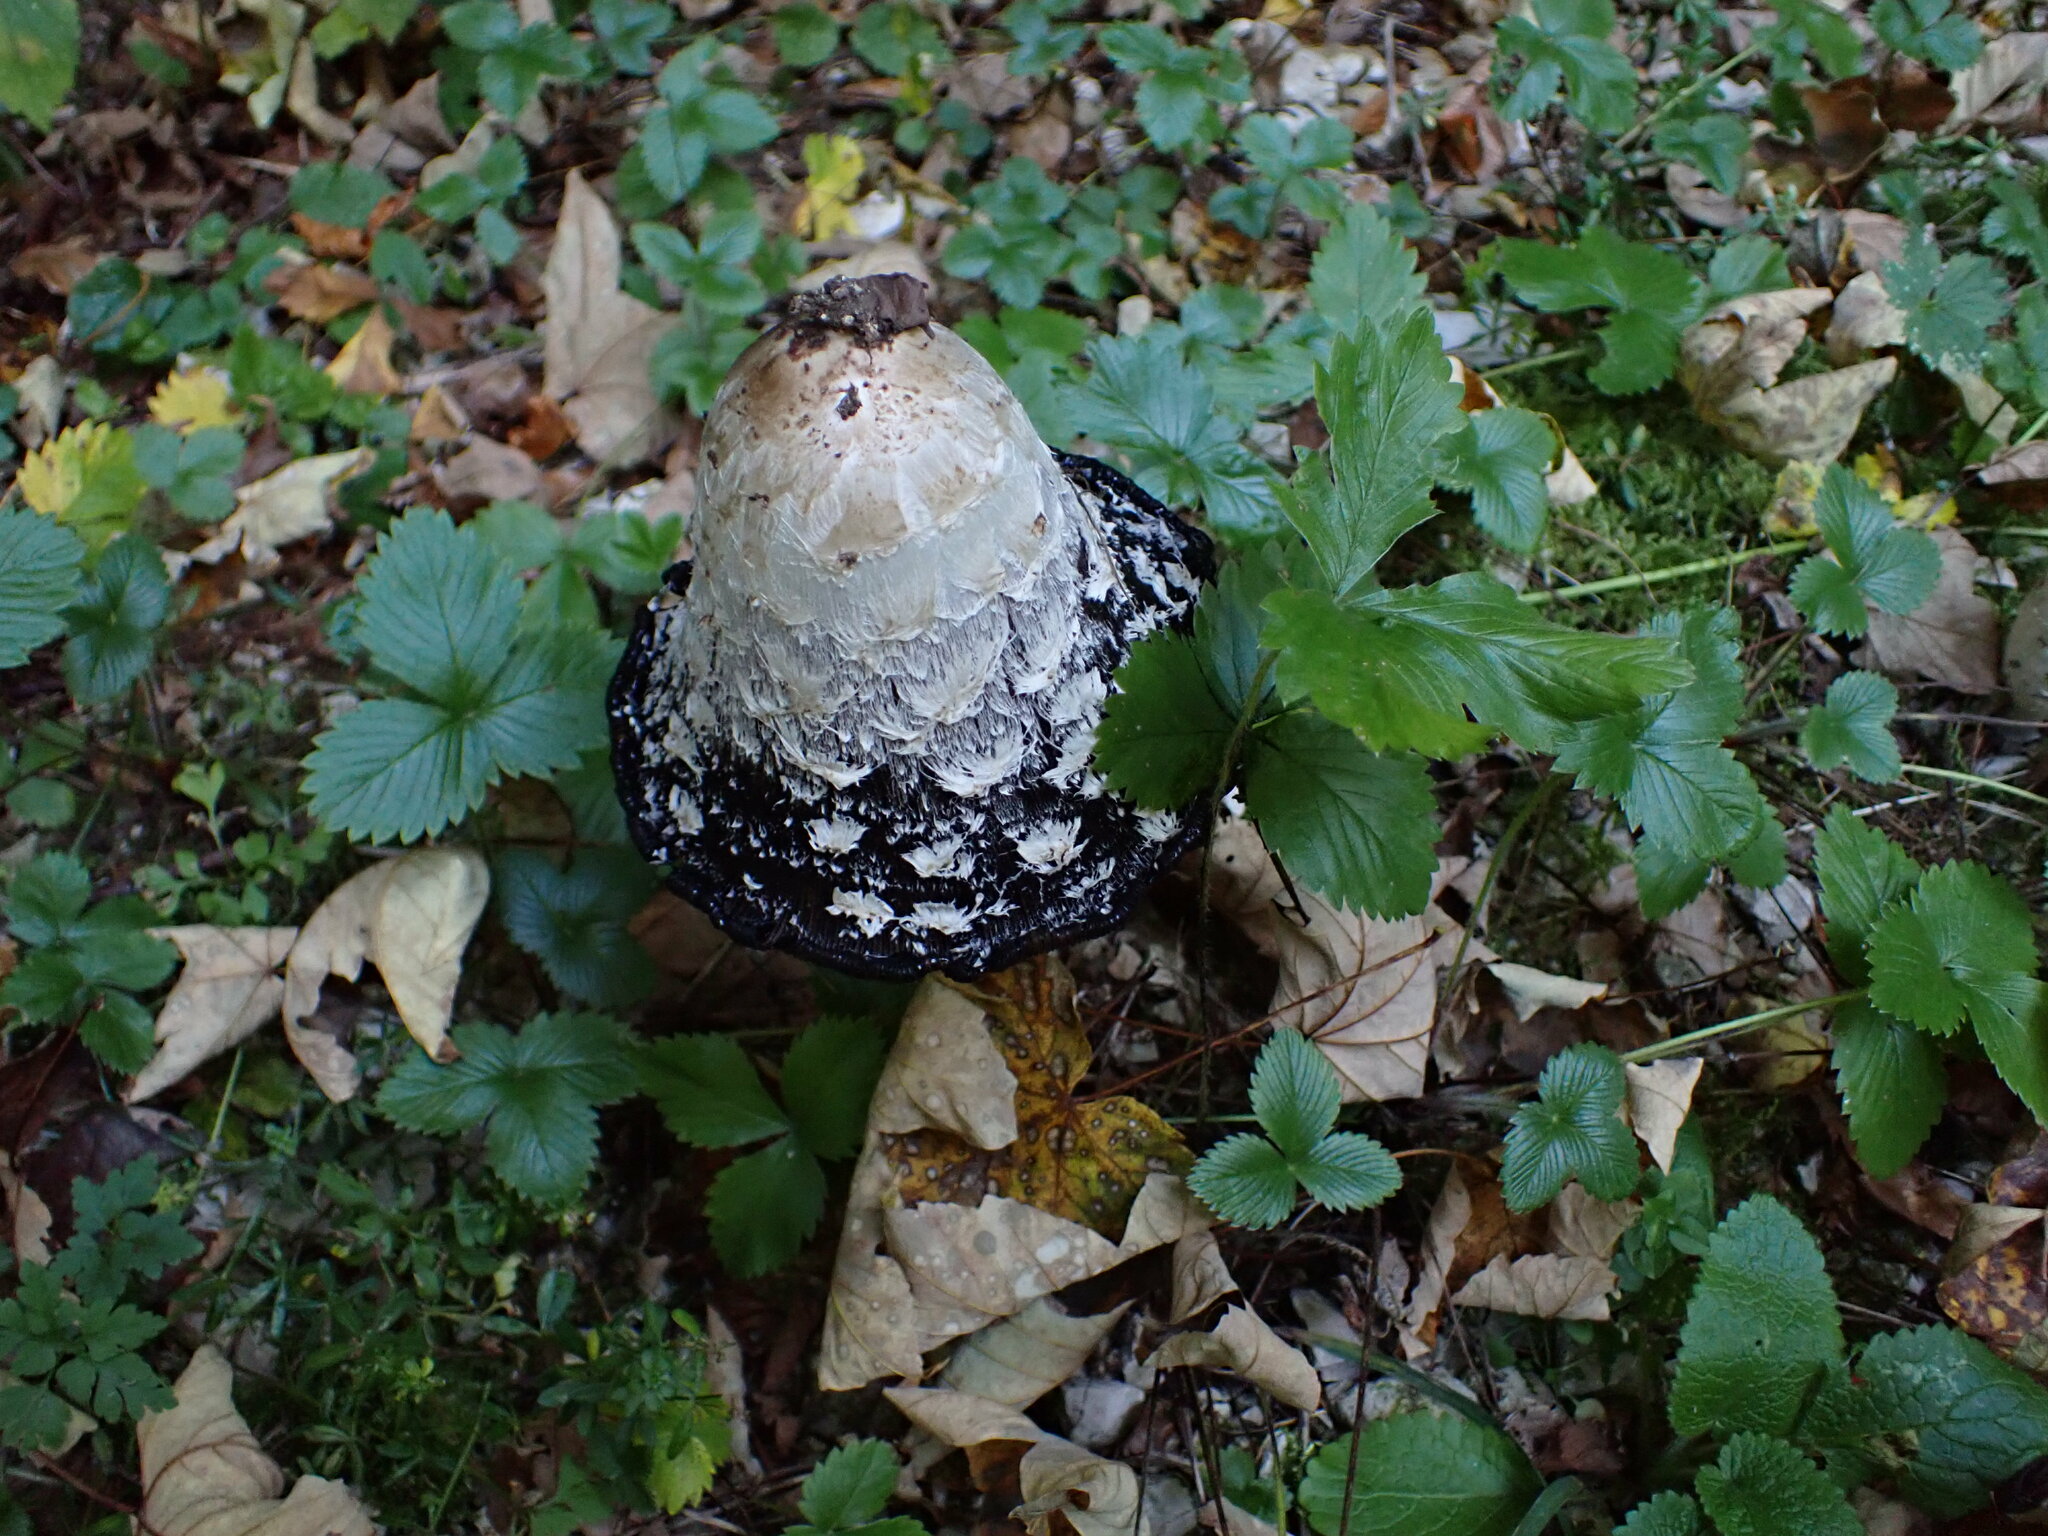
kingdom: Fungi
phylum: Basidiomycota
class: Agaricomycetes
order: Agaricales
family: Agaricaceae
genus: Coprinus
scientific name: Coprinus comatus
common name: Lawyer's wig
